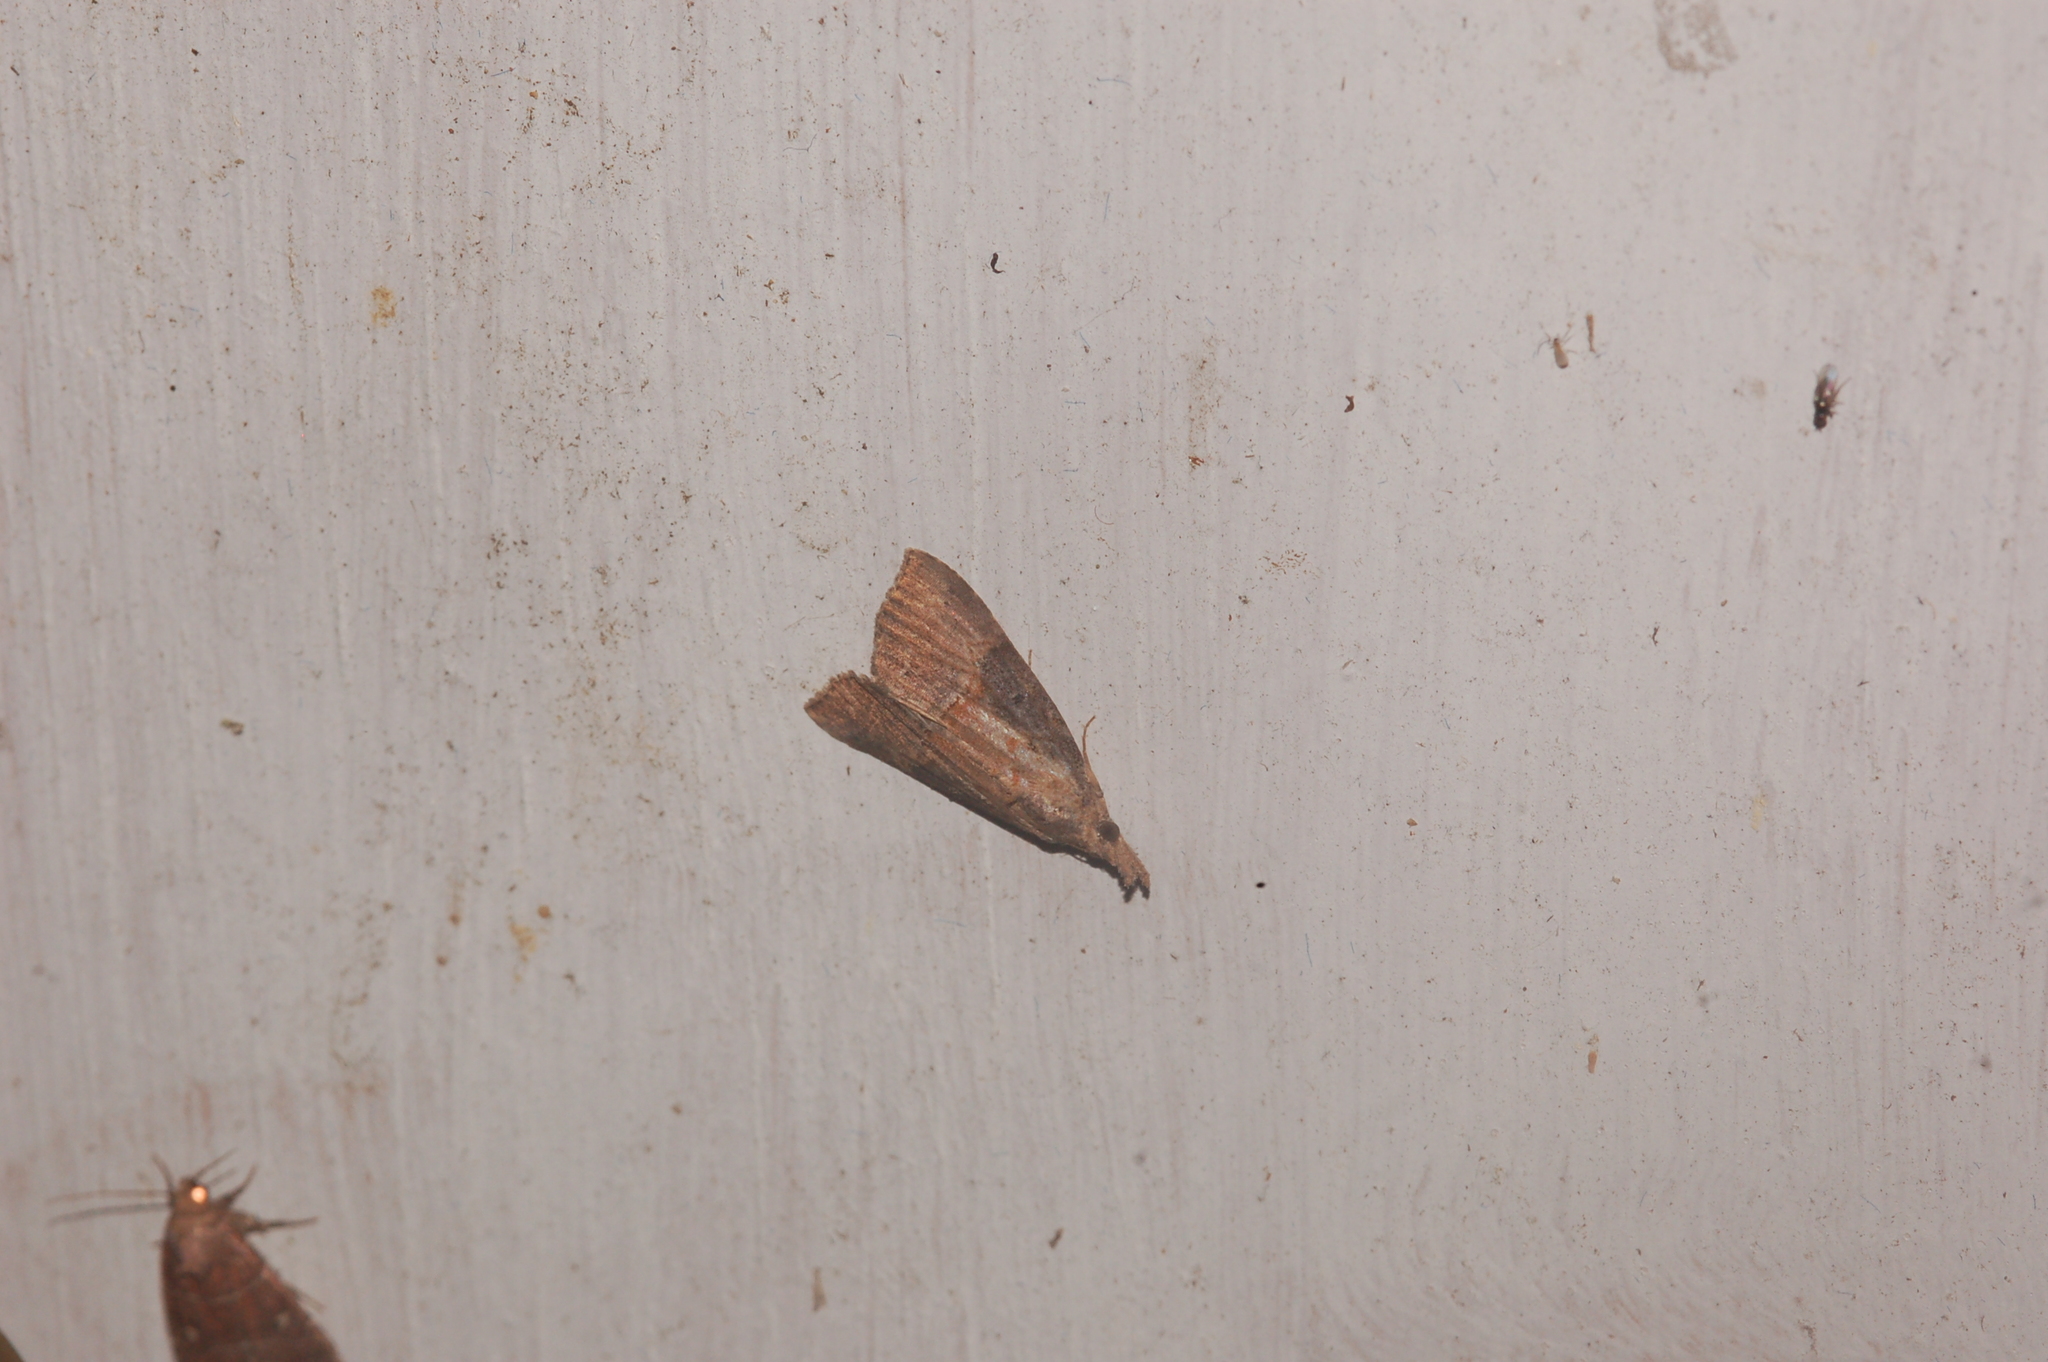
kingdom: Animalia
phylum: Arthropoda
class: Insecta
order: Lepidoptera
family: Erebidae
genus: Hypena
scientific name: Hypena scabra
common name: Green cloverworm
